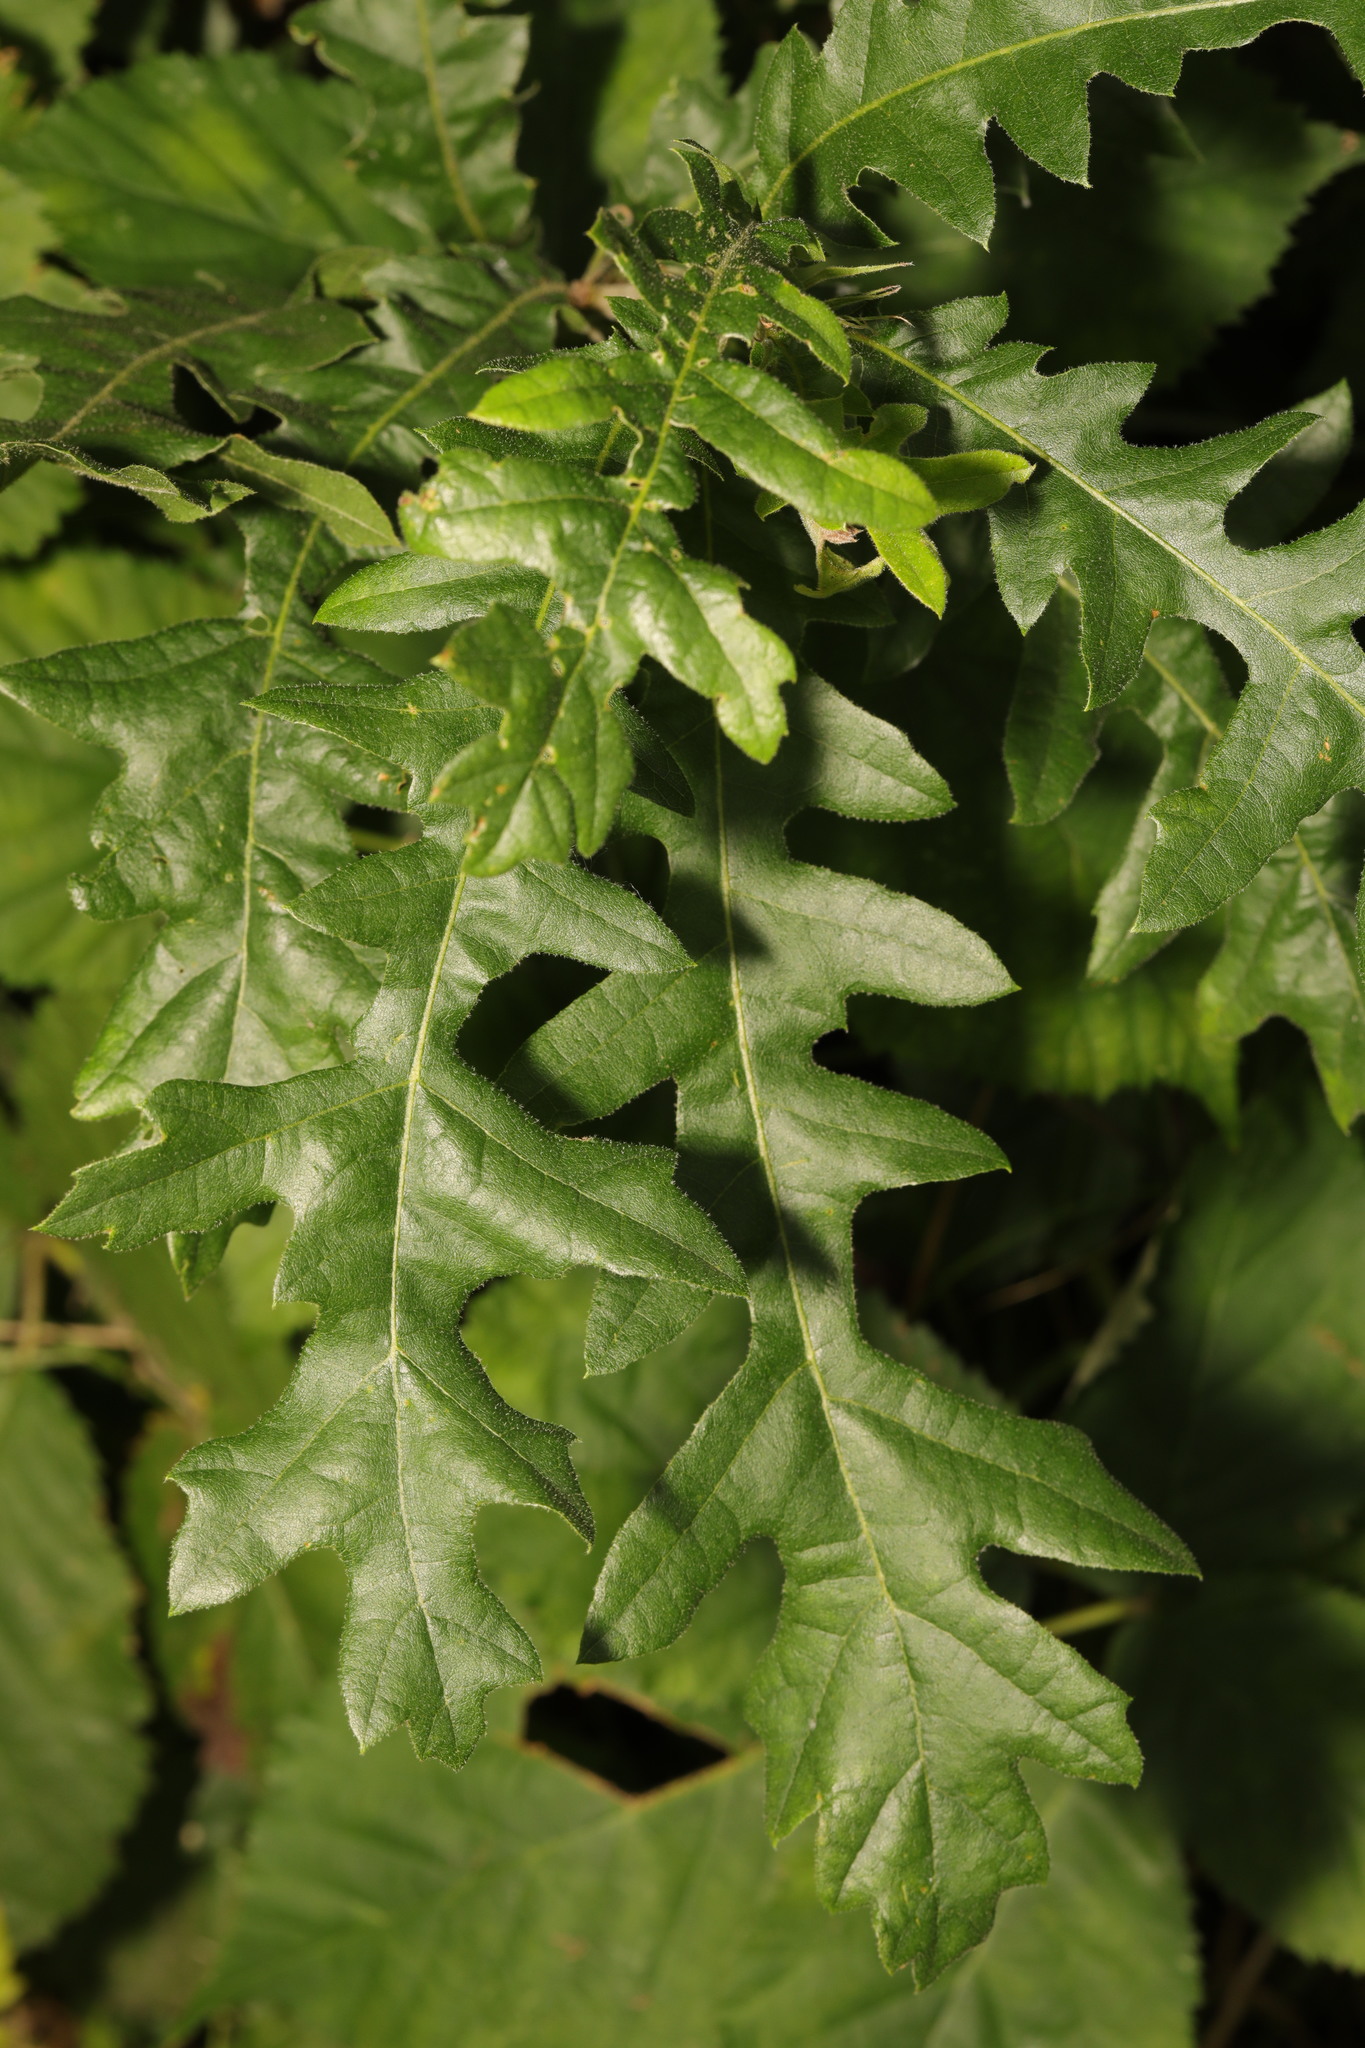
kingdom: Plantae
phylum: Tracheophyta
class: Magnoliopsida
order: Fagales
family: Fagaceae
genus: Quercus
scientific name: Quercus cerris
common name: Turkey oak
